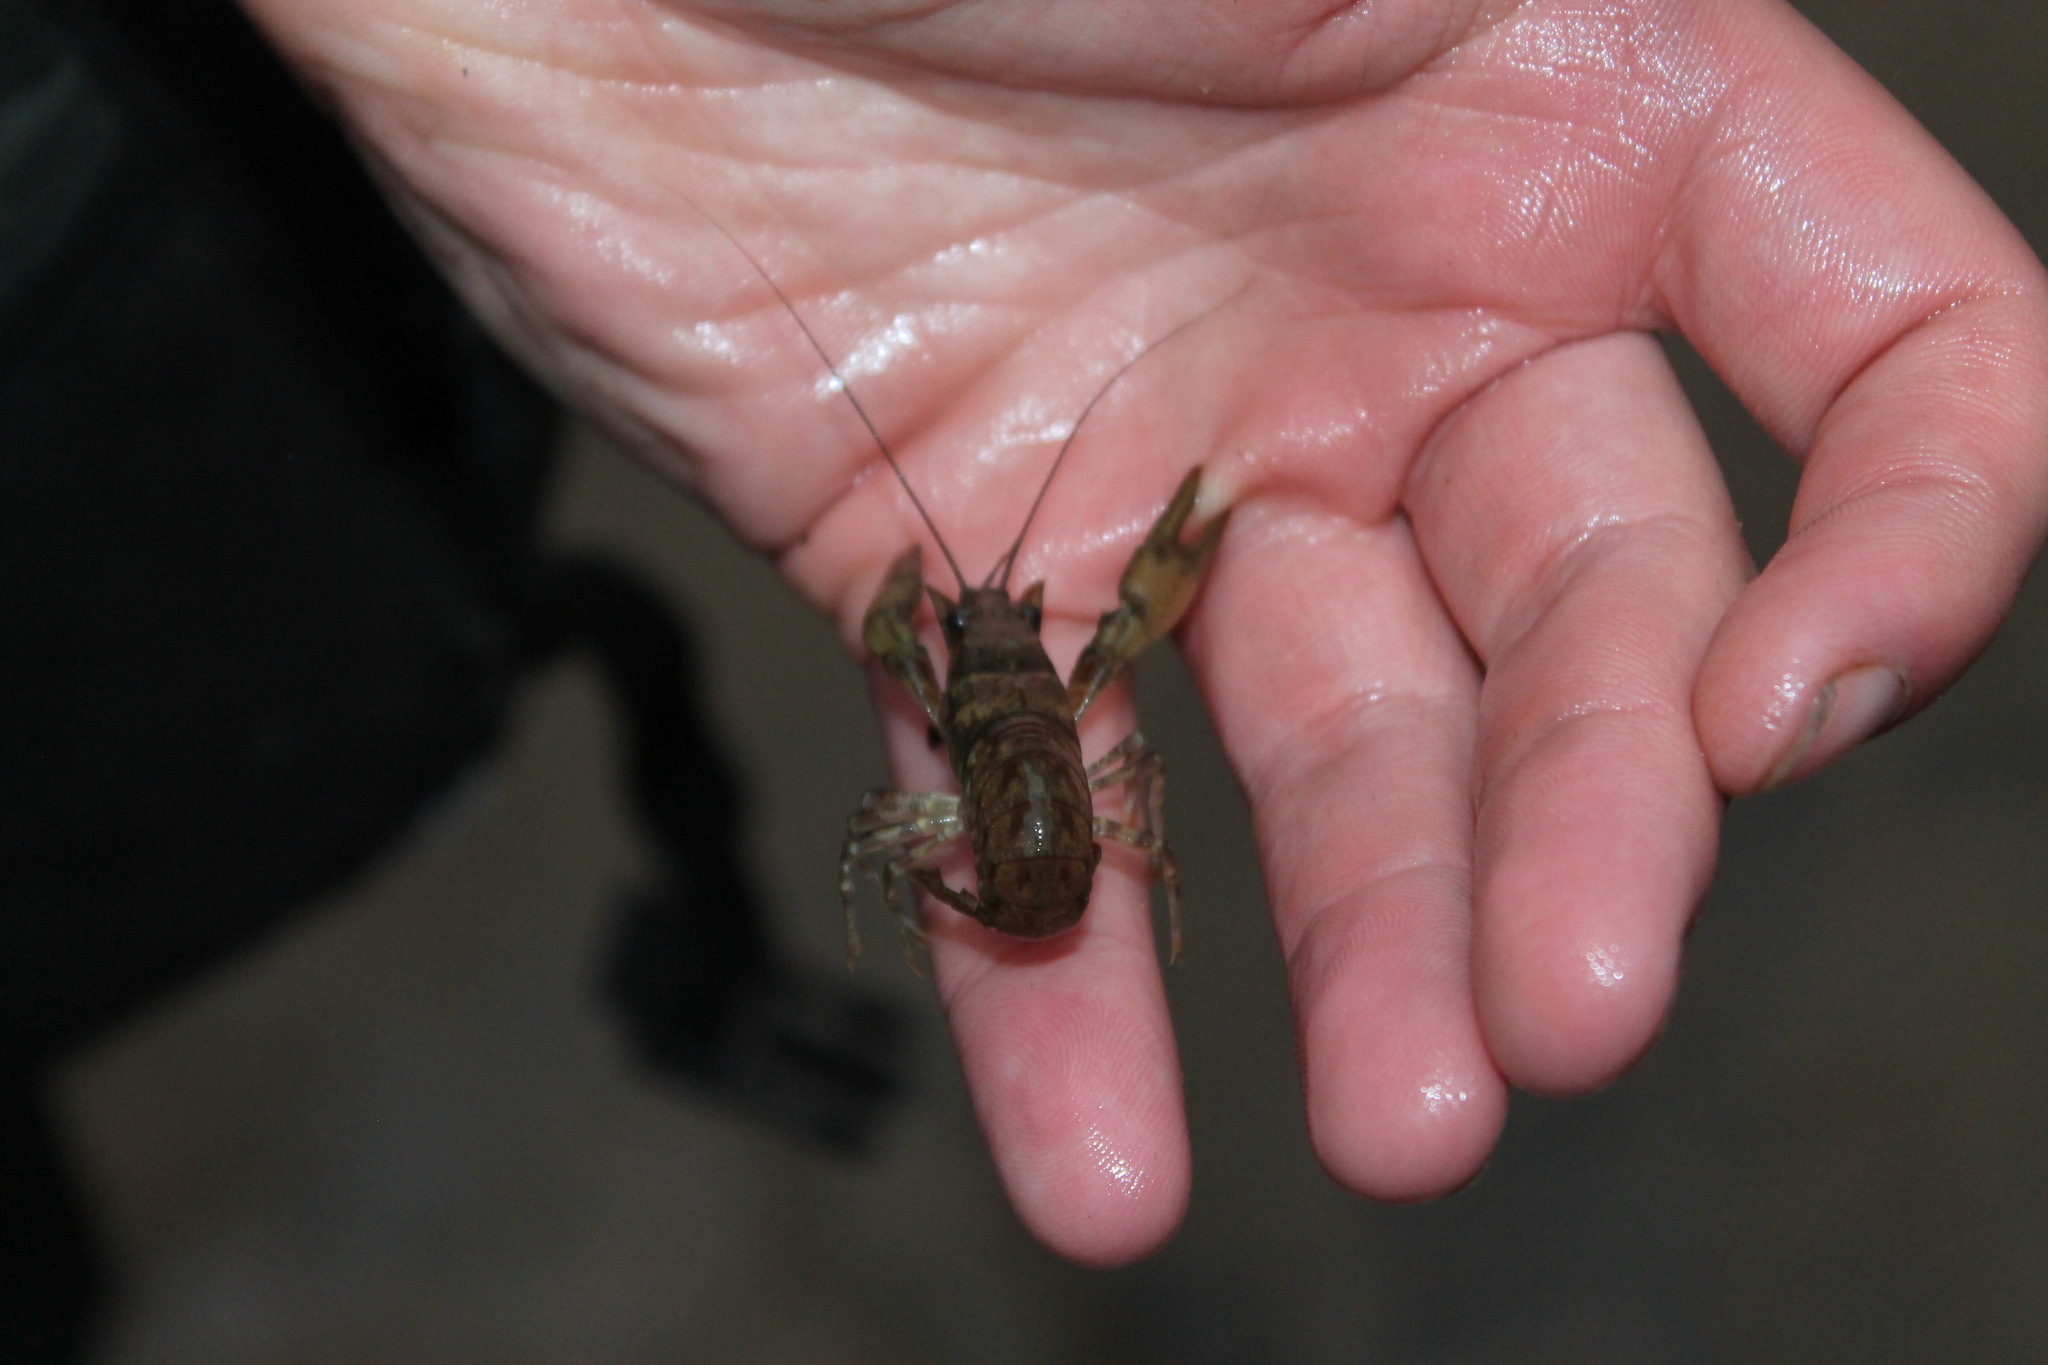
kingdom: Animalia
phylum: Arthropoda
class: Malacostraca
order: Decapoda
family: Cambaridae
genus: Faxonius
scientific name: Faxonius validus
